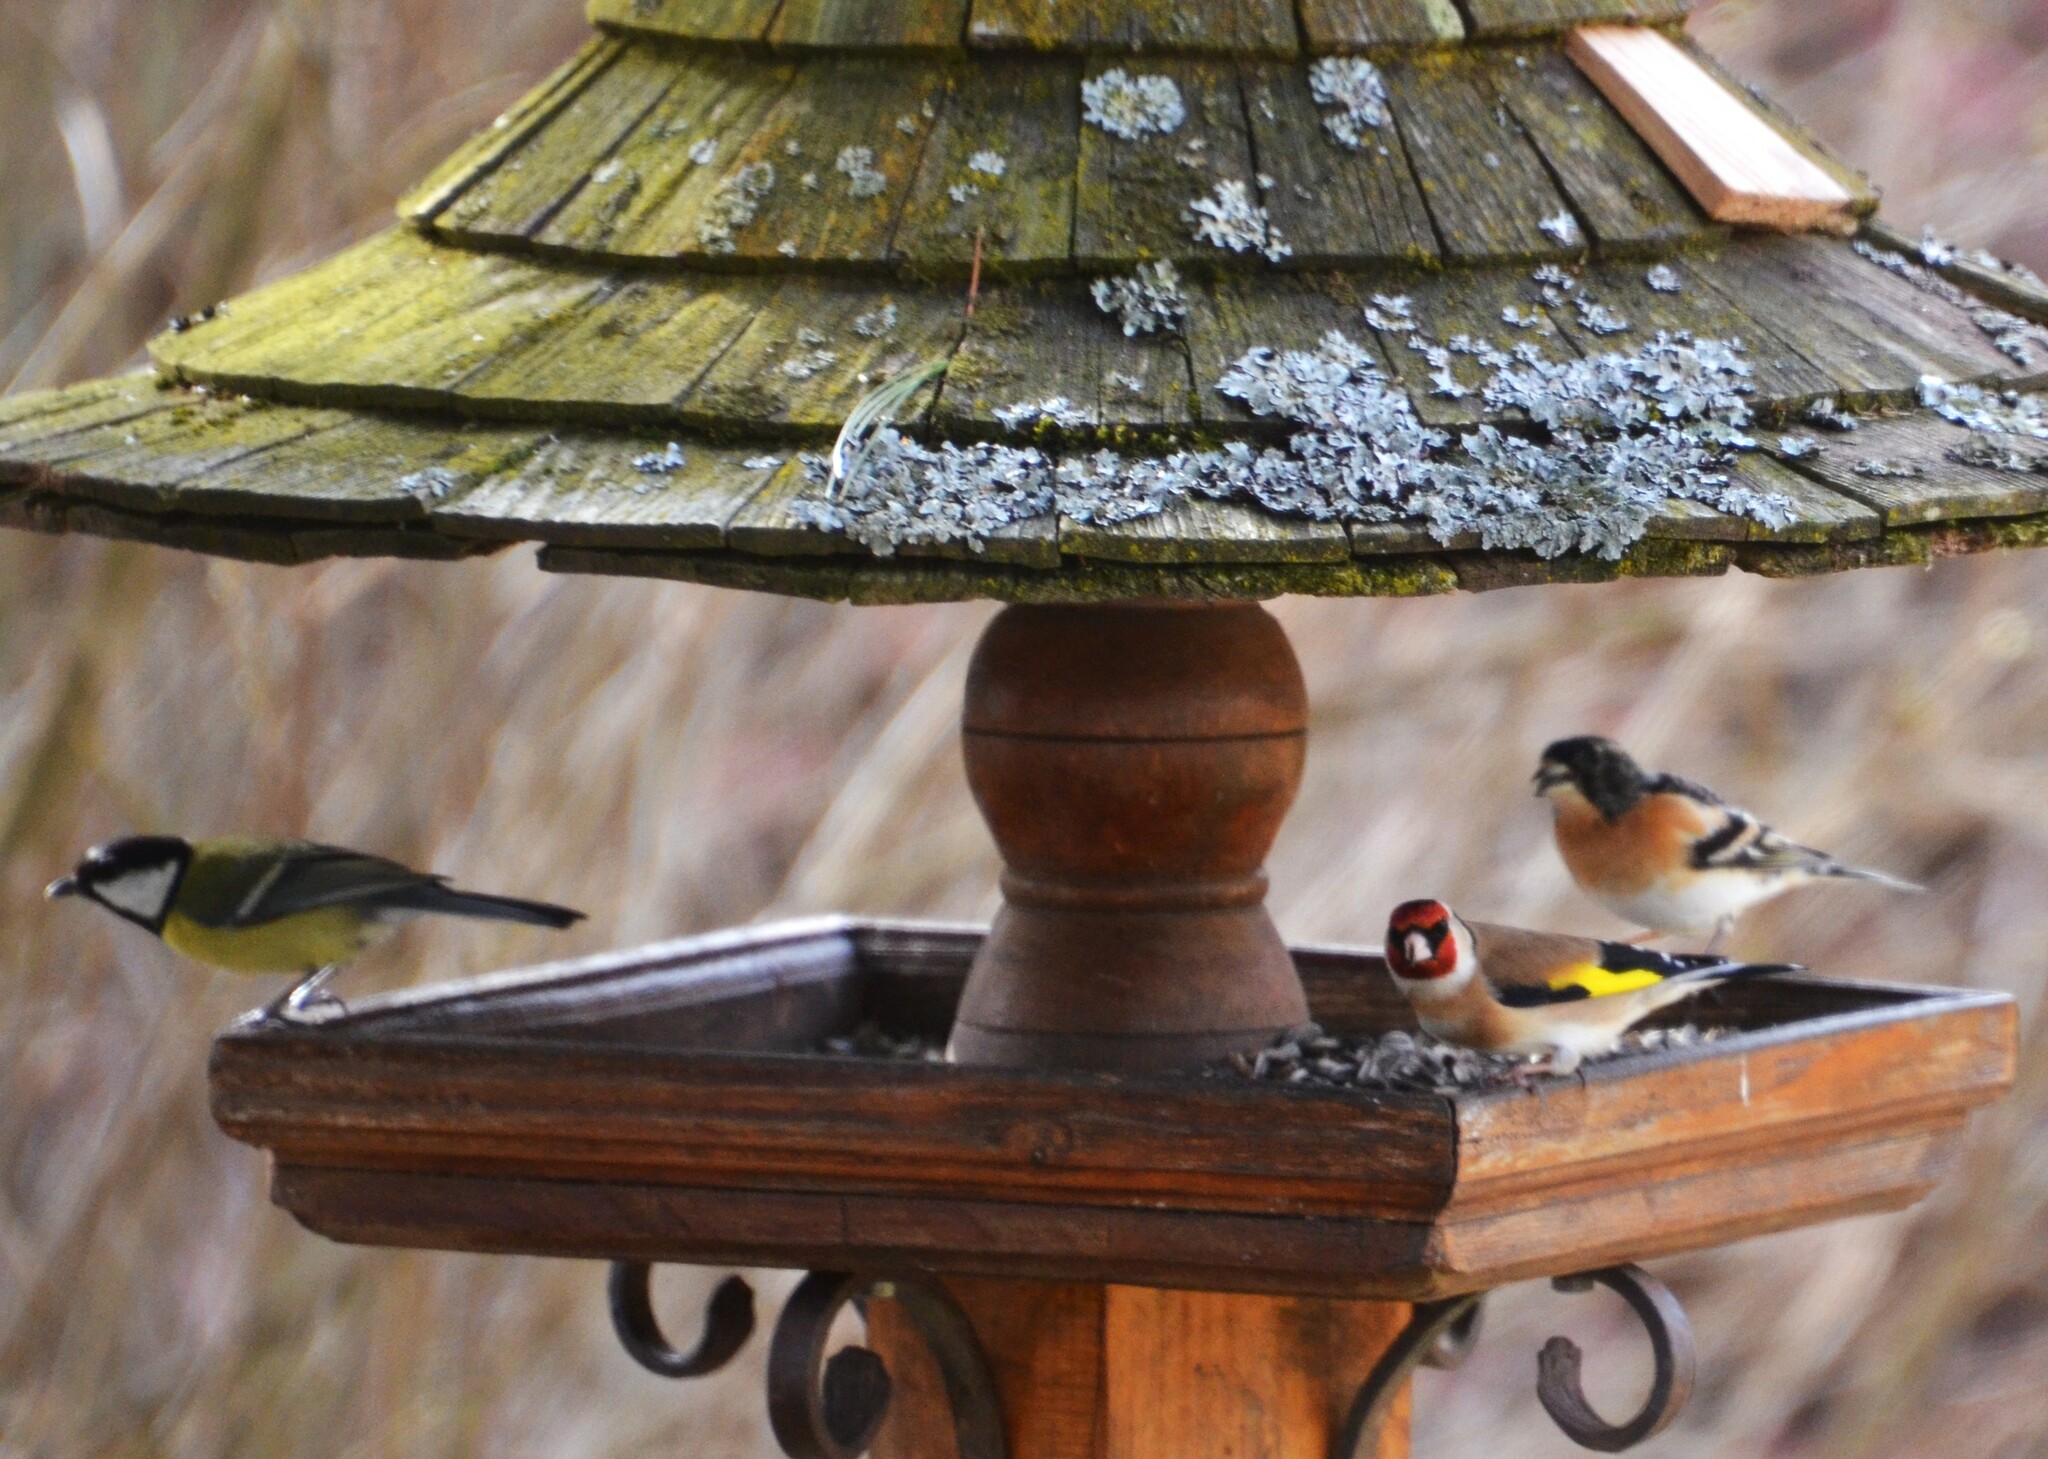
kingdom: Animalia
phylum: Chordata
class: Aves
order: Passeriformes
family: Fringillidae
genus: Carduelis
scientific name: Carduelis carduelis
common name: European goldfinch
